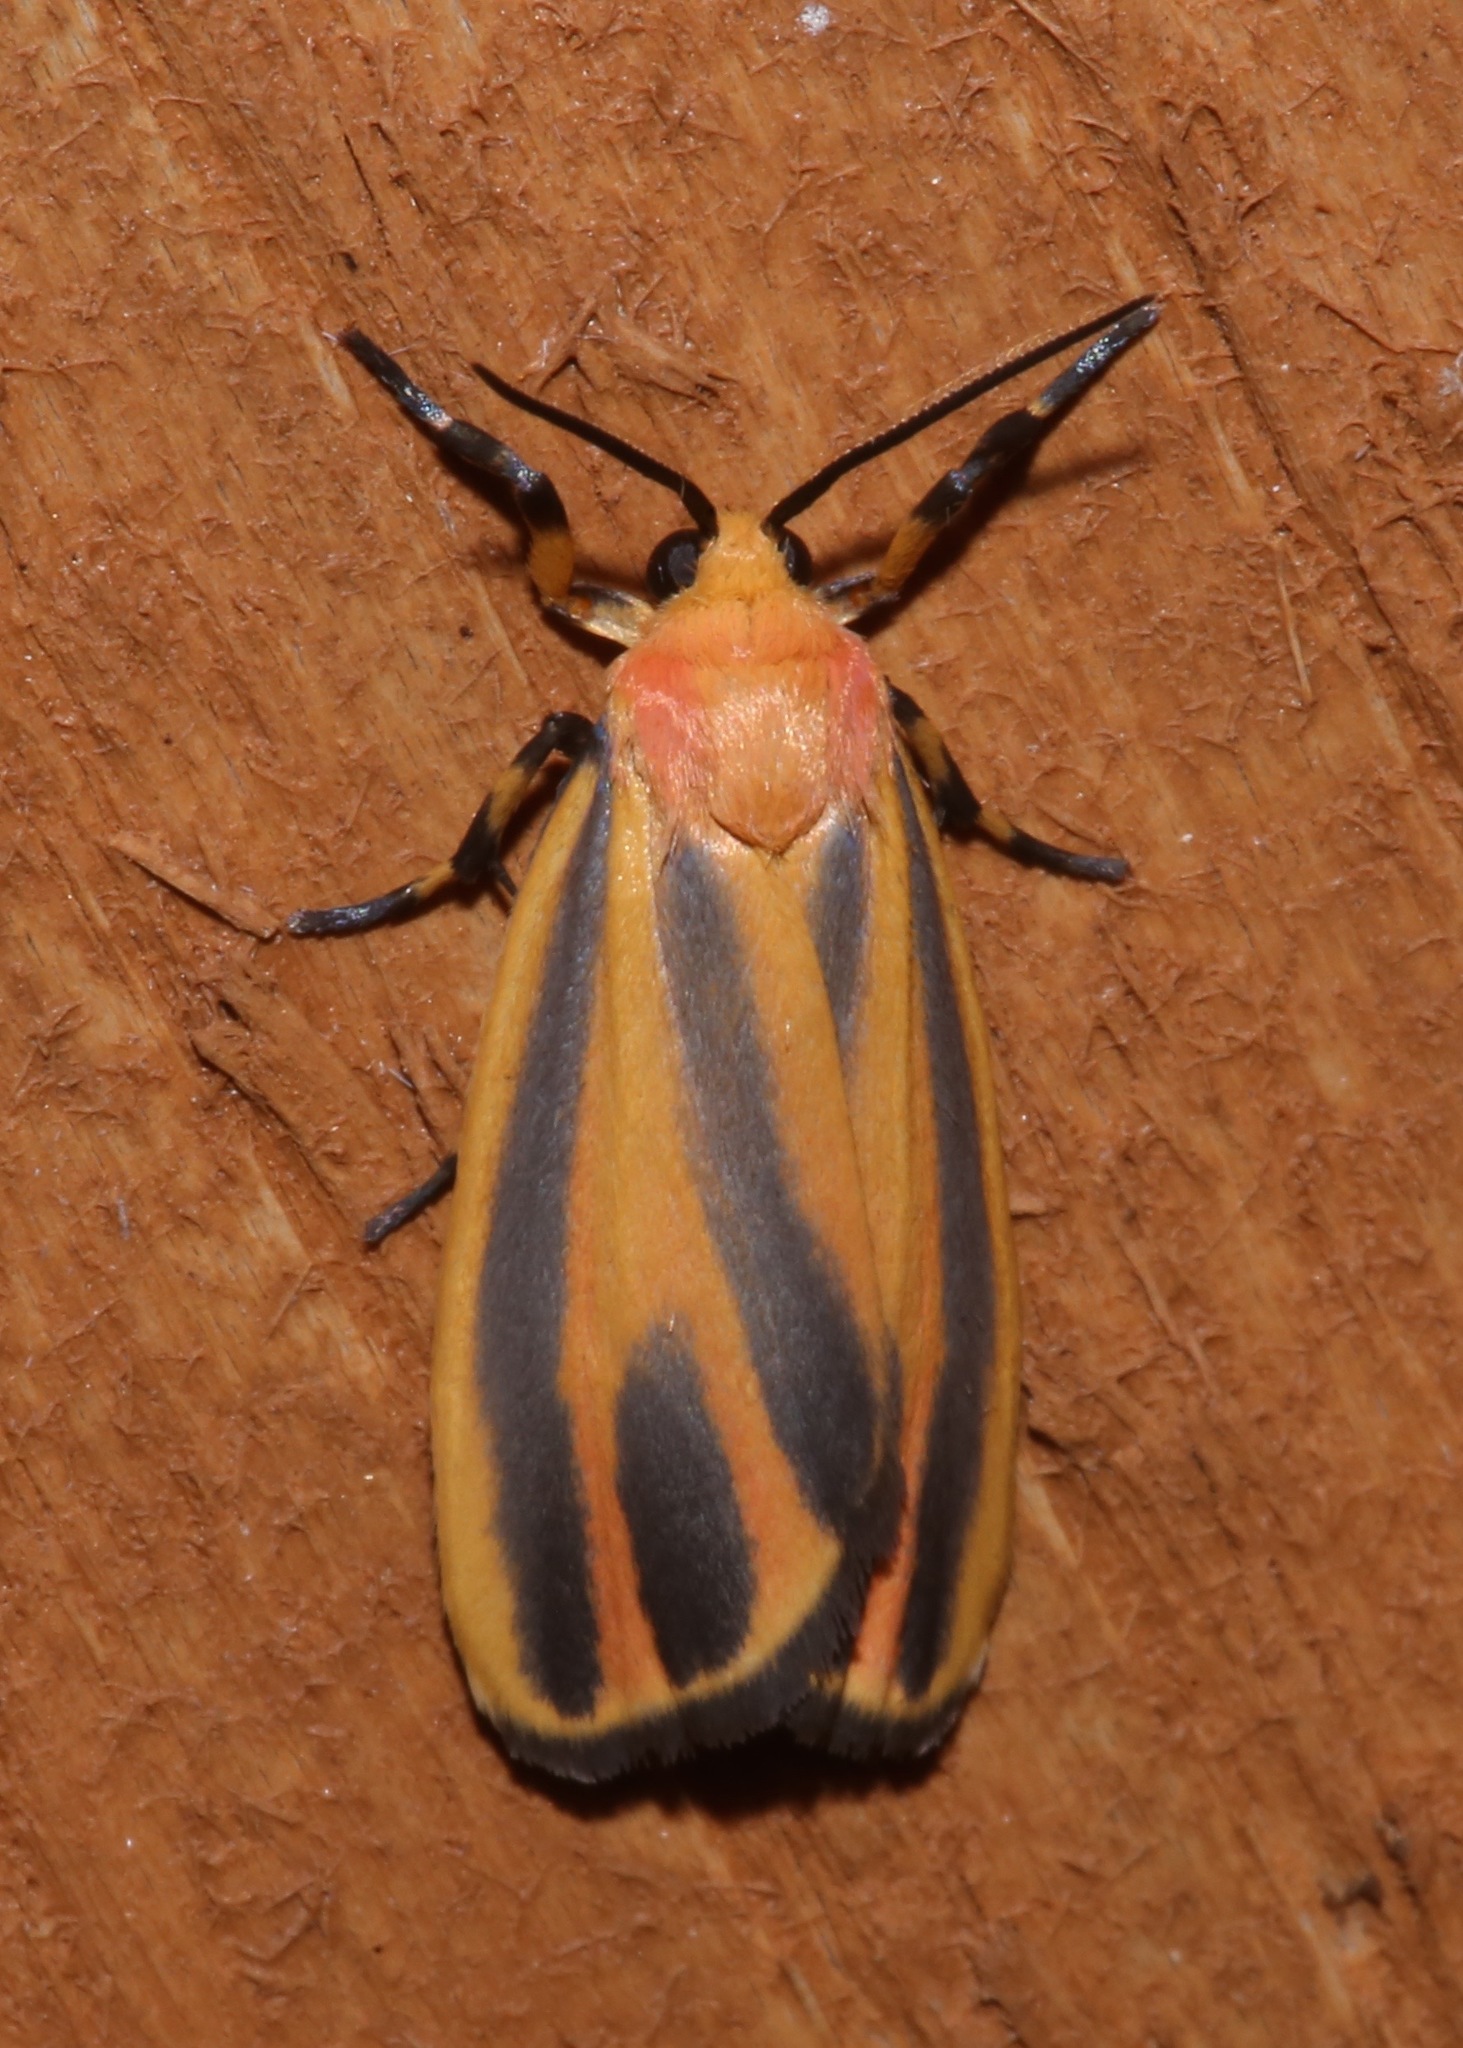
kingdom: Animalia
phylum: Arthropoda
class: Insecta
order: Lepidoptera
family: Erebidae
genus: Hypoprepia
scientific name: Hypoprepia fucosa
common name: Painted lichen moth
